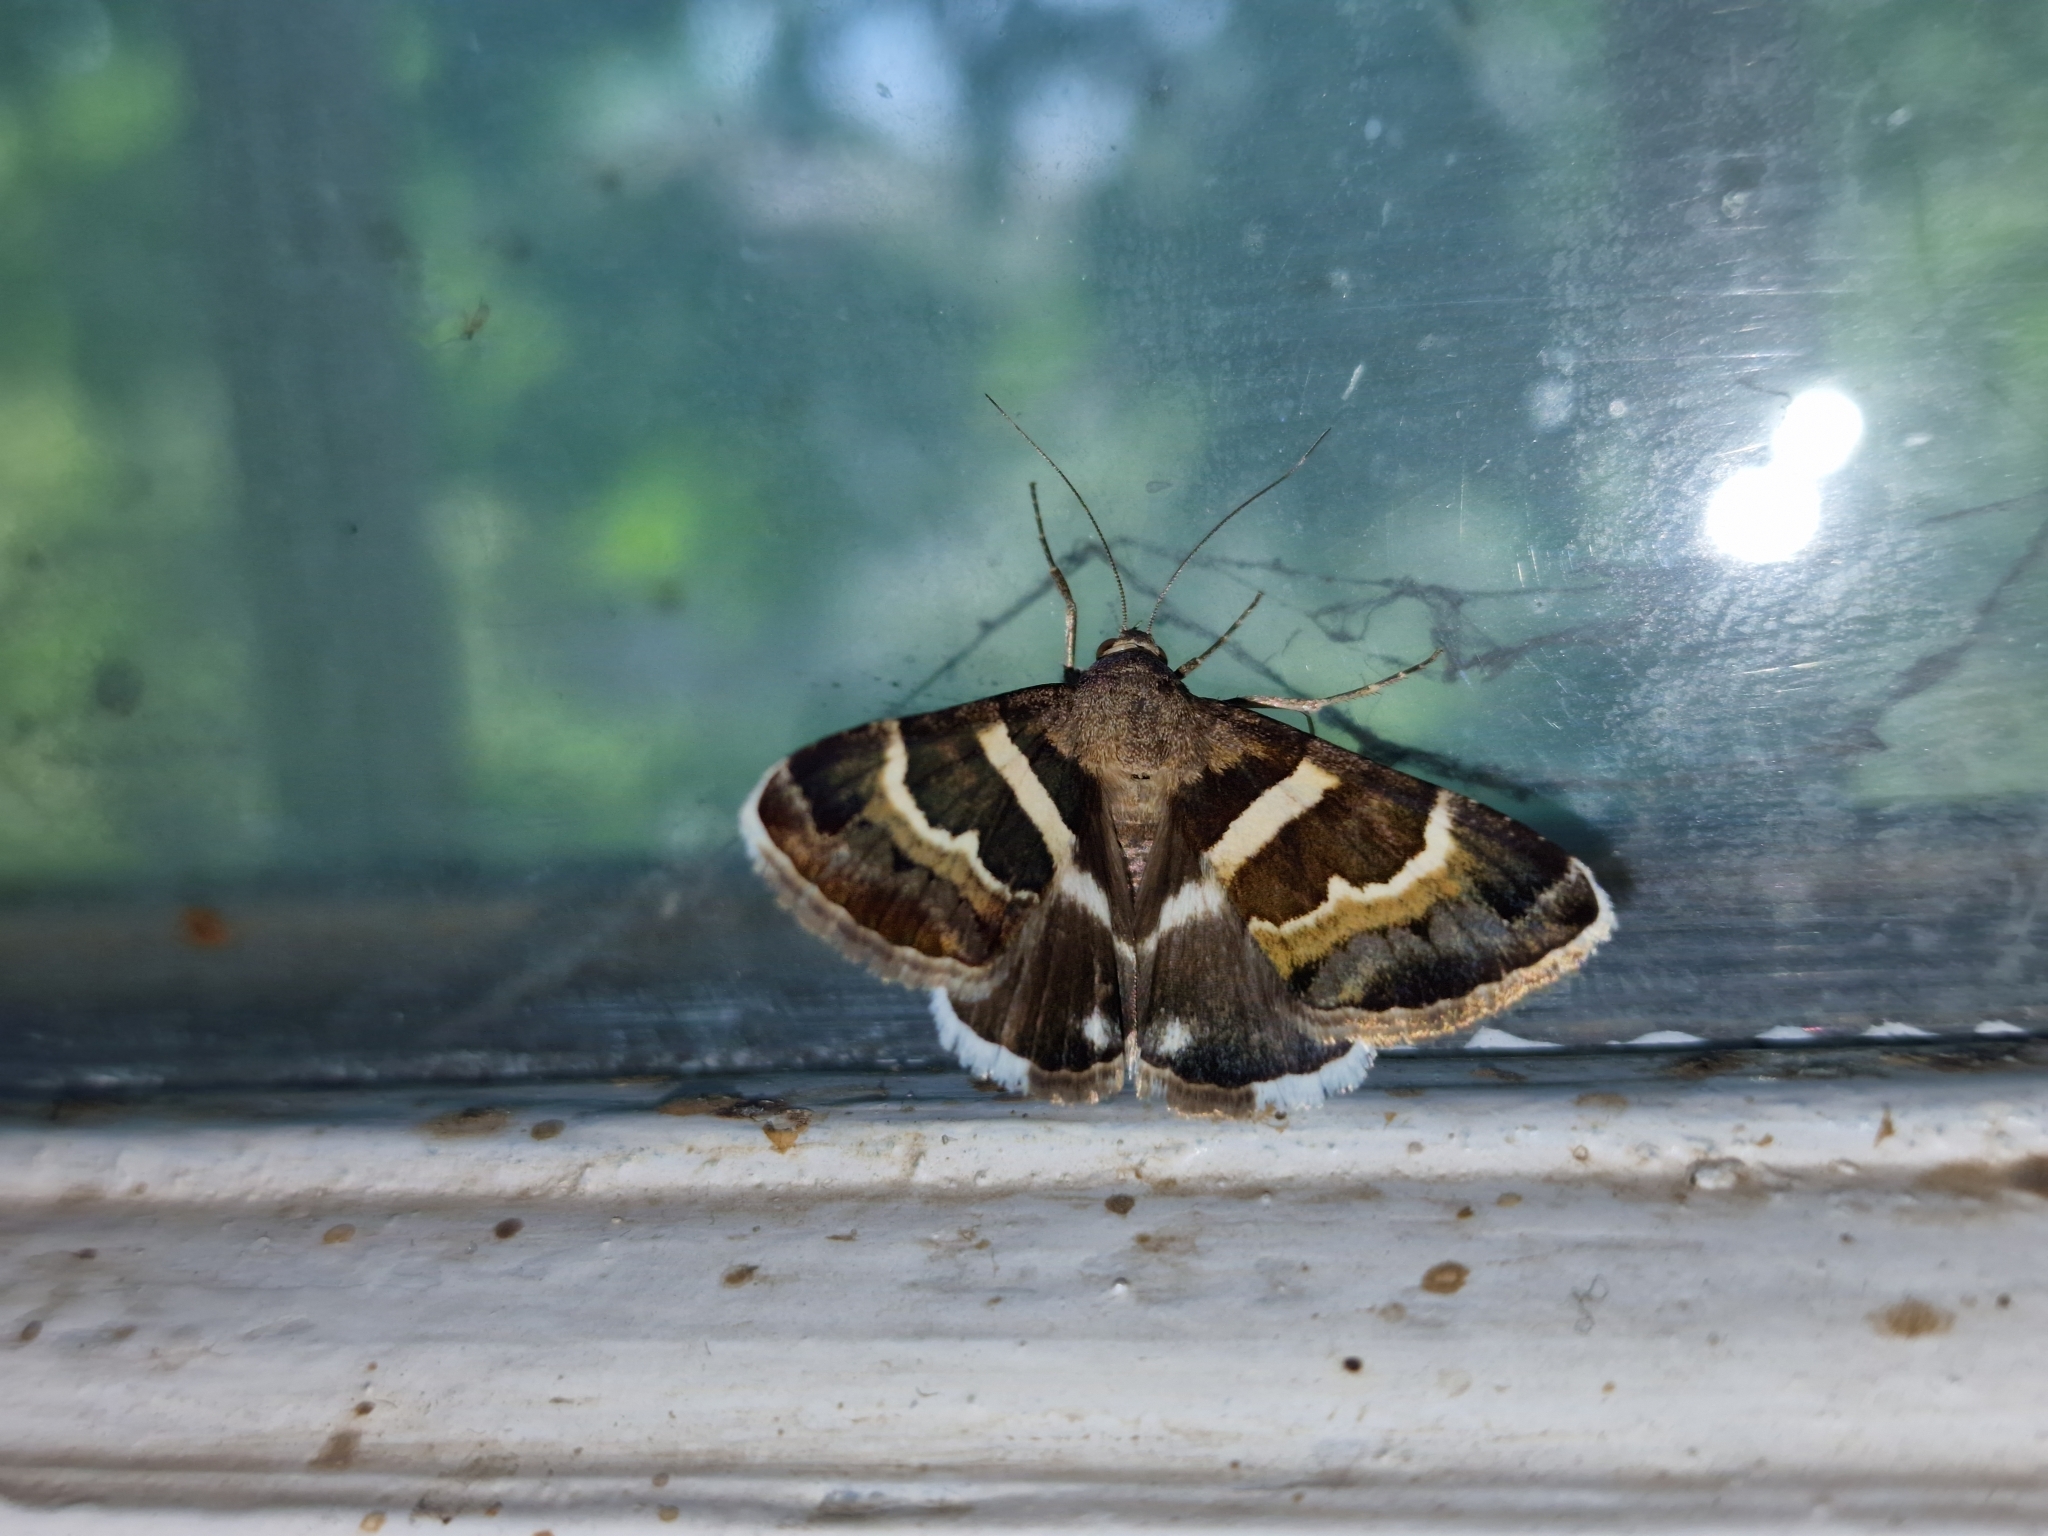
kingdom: Animalia
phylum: Arthropoda
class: Insecta
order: Lepidoptera
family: Erebidae
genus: Grammodes
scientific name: Grammodes stolida
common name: Geometrician
